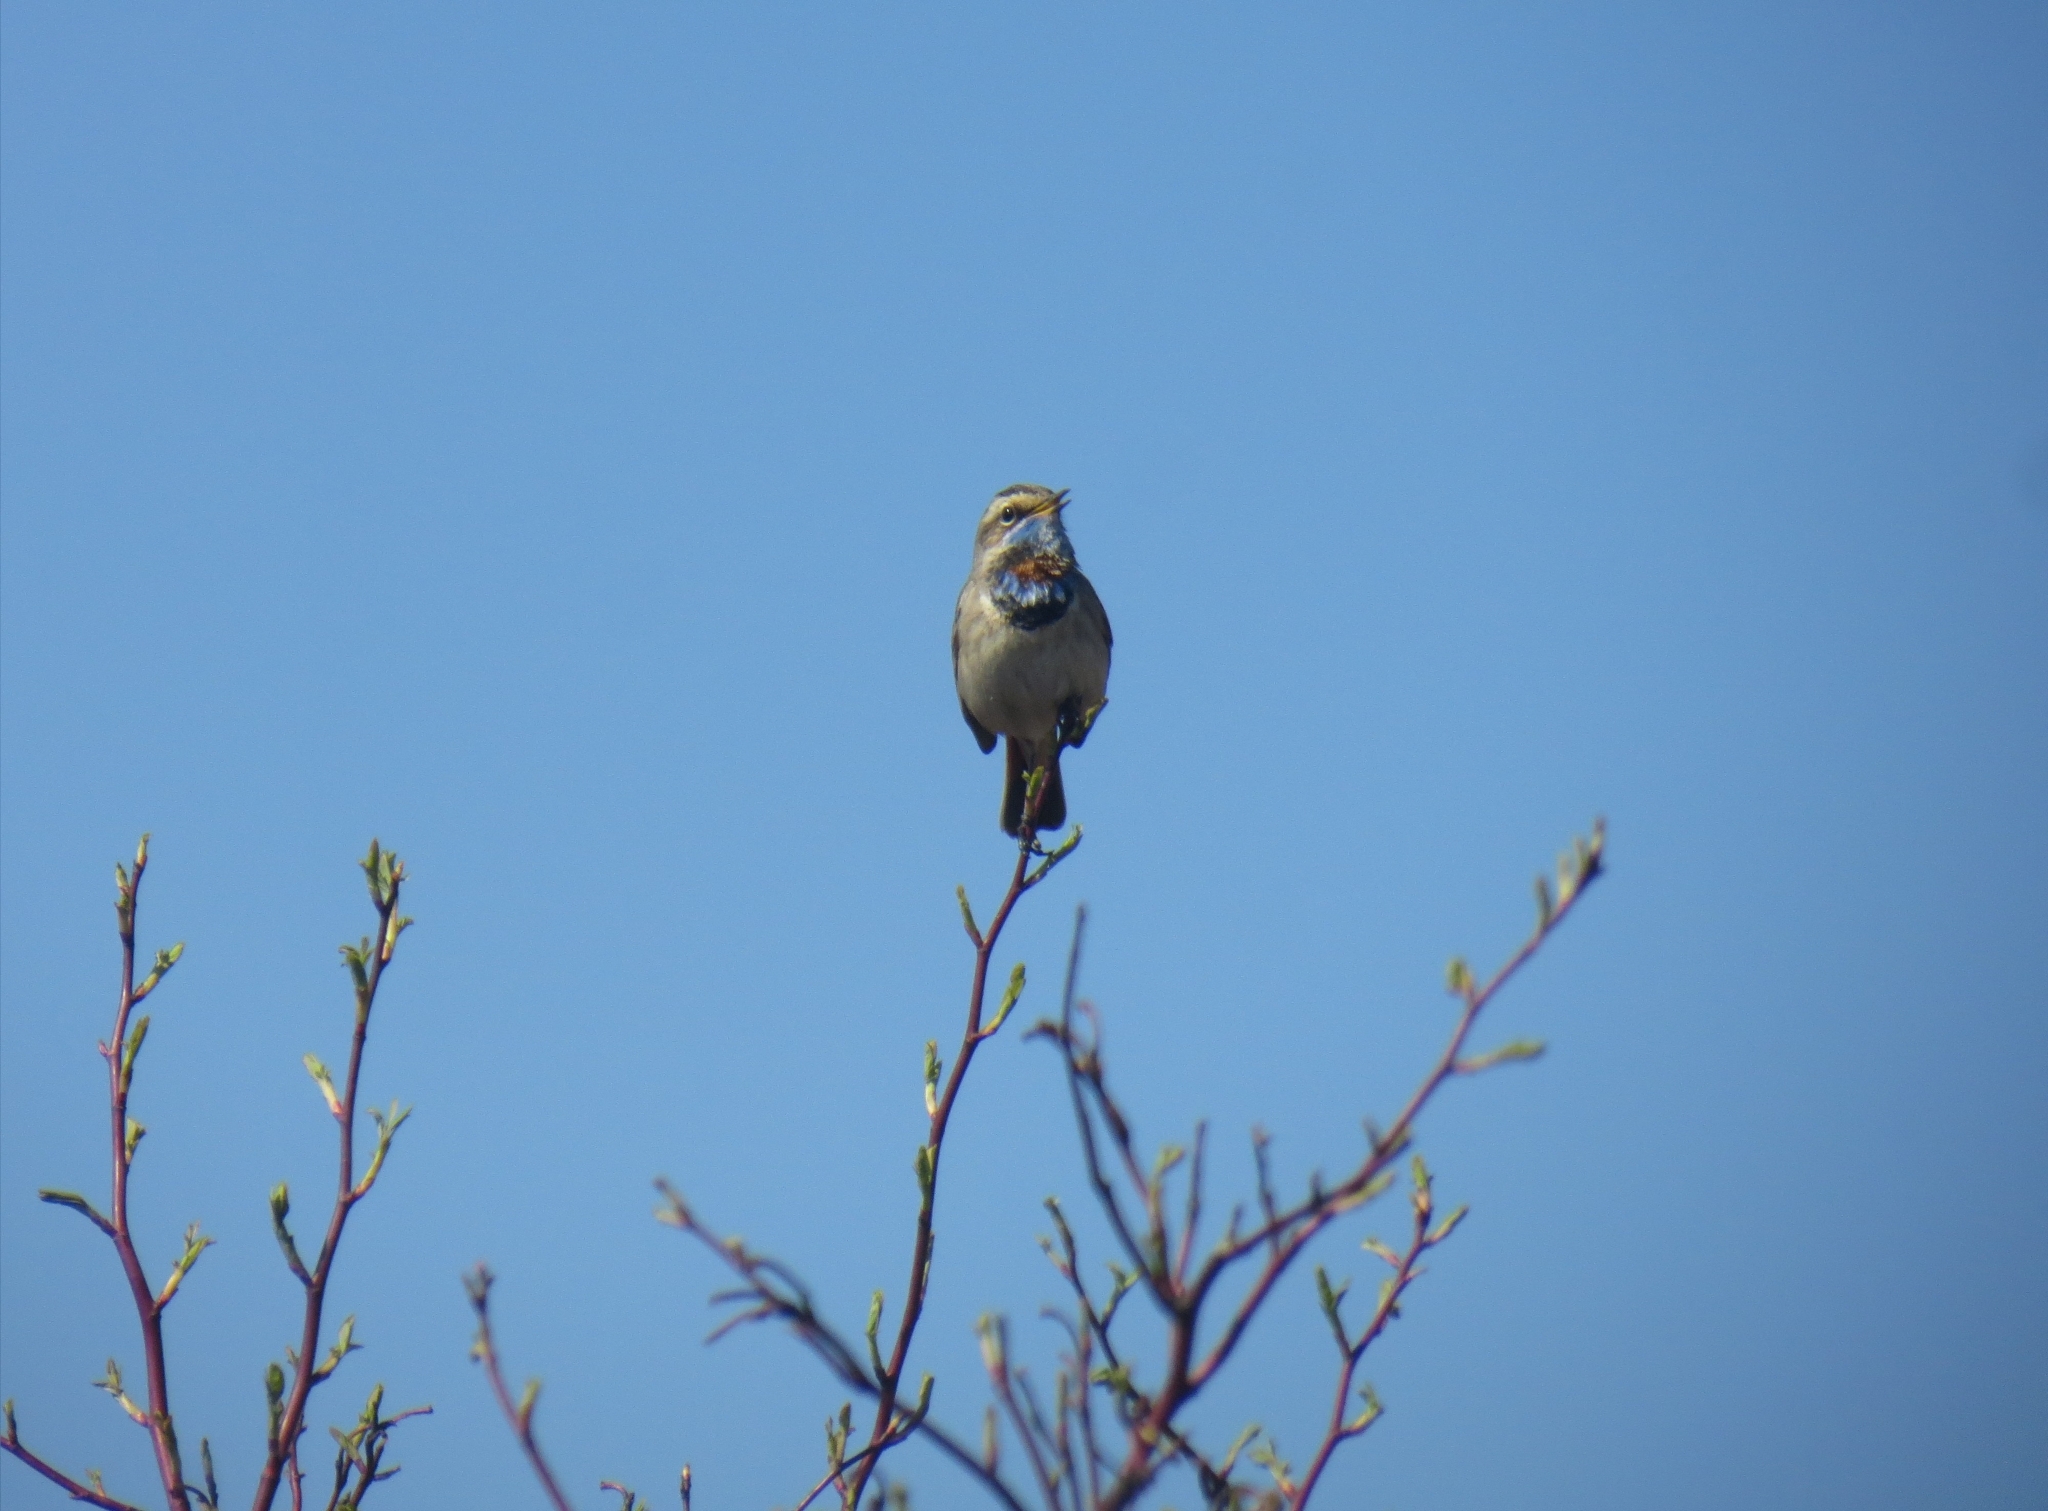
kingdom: Animalia
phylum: Chordata
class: Aves
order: Passeriformes
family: Muscicapidae
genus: Luscinia
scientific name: Luscinia svecica
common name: Bluethroat
